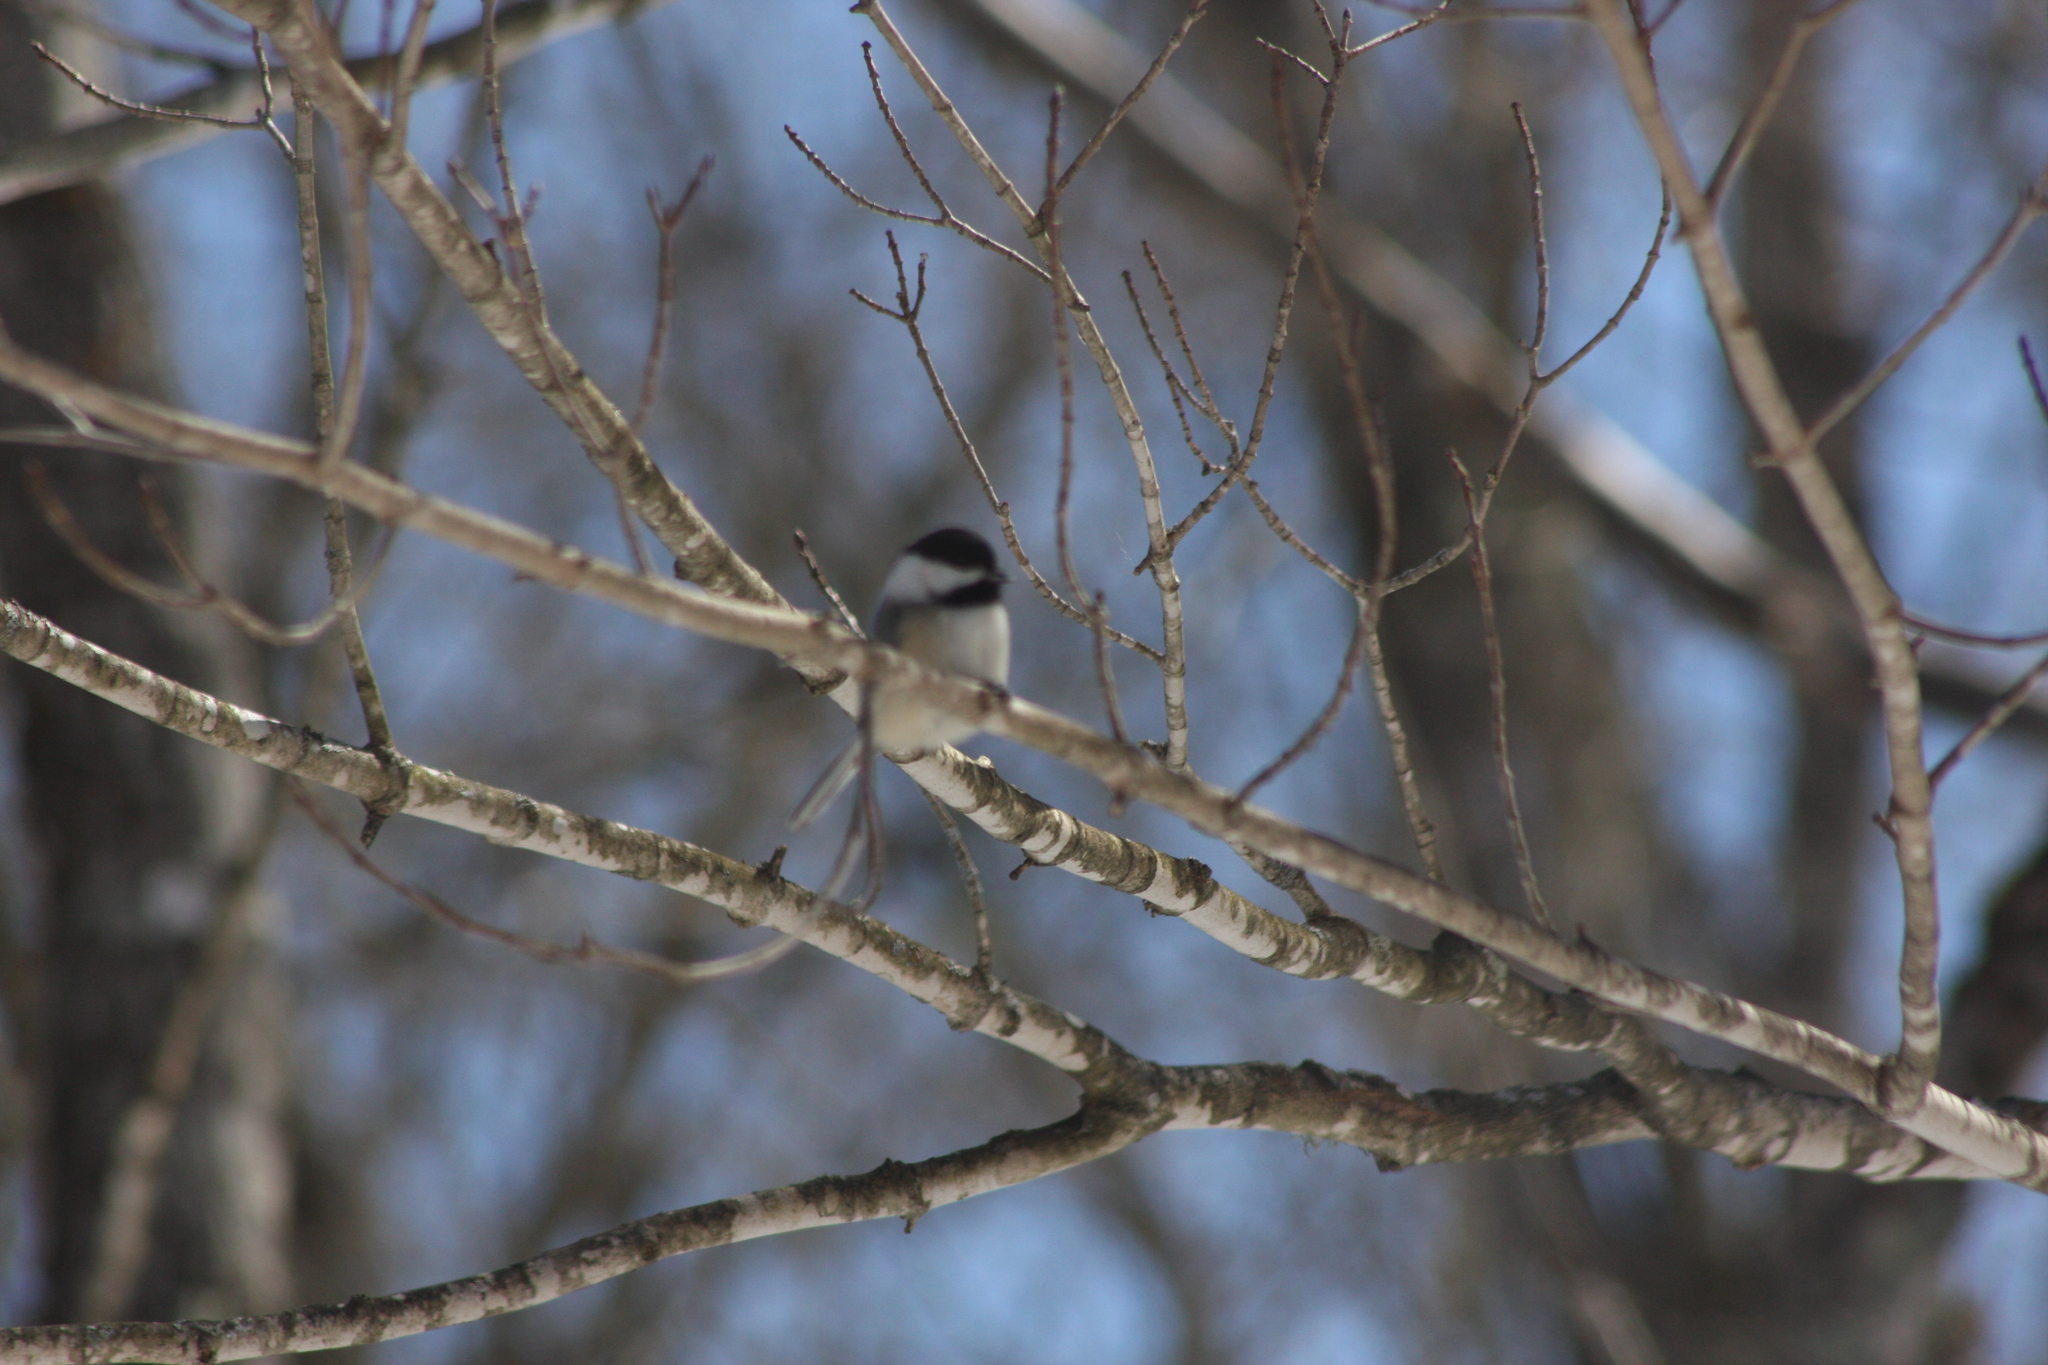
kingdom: Animalia
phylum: Chordata
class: Aves
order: Passeriformes
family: Paridae
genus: Poecile
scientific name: Poecile atricapillus
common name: Black-capped chickadee
